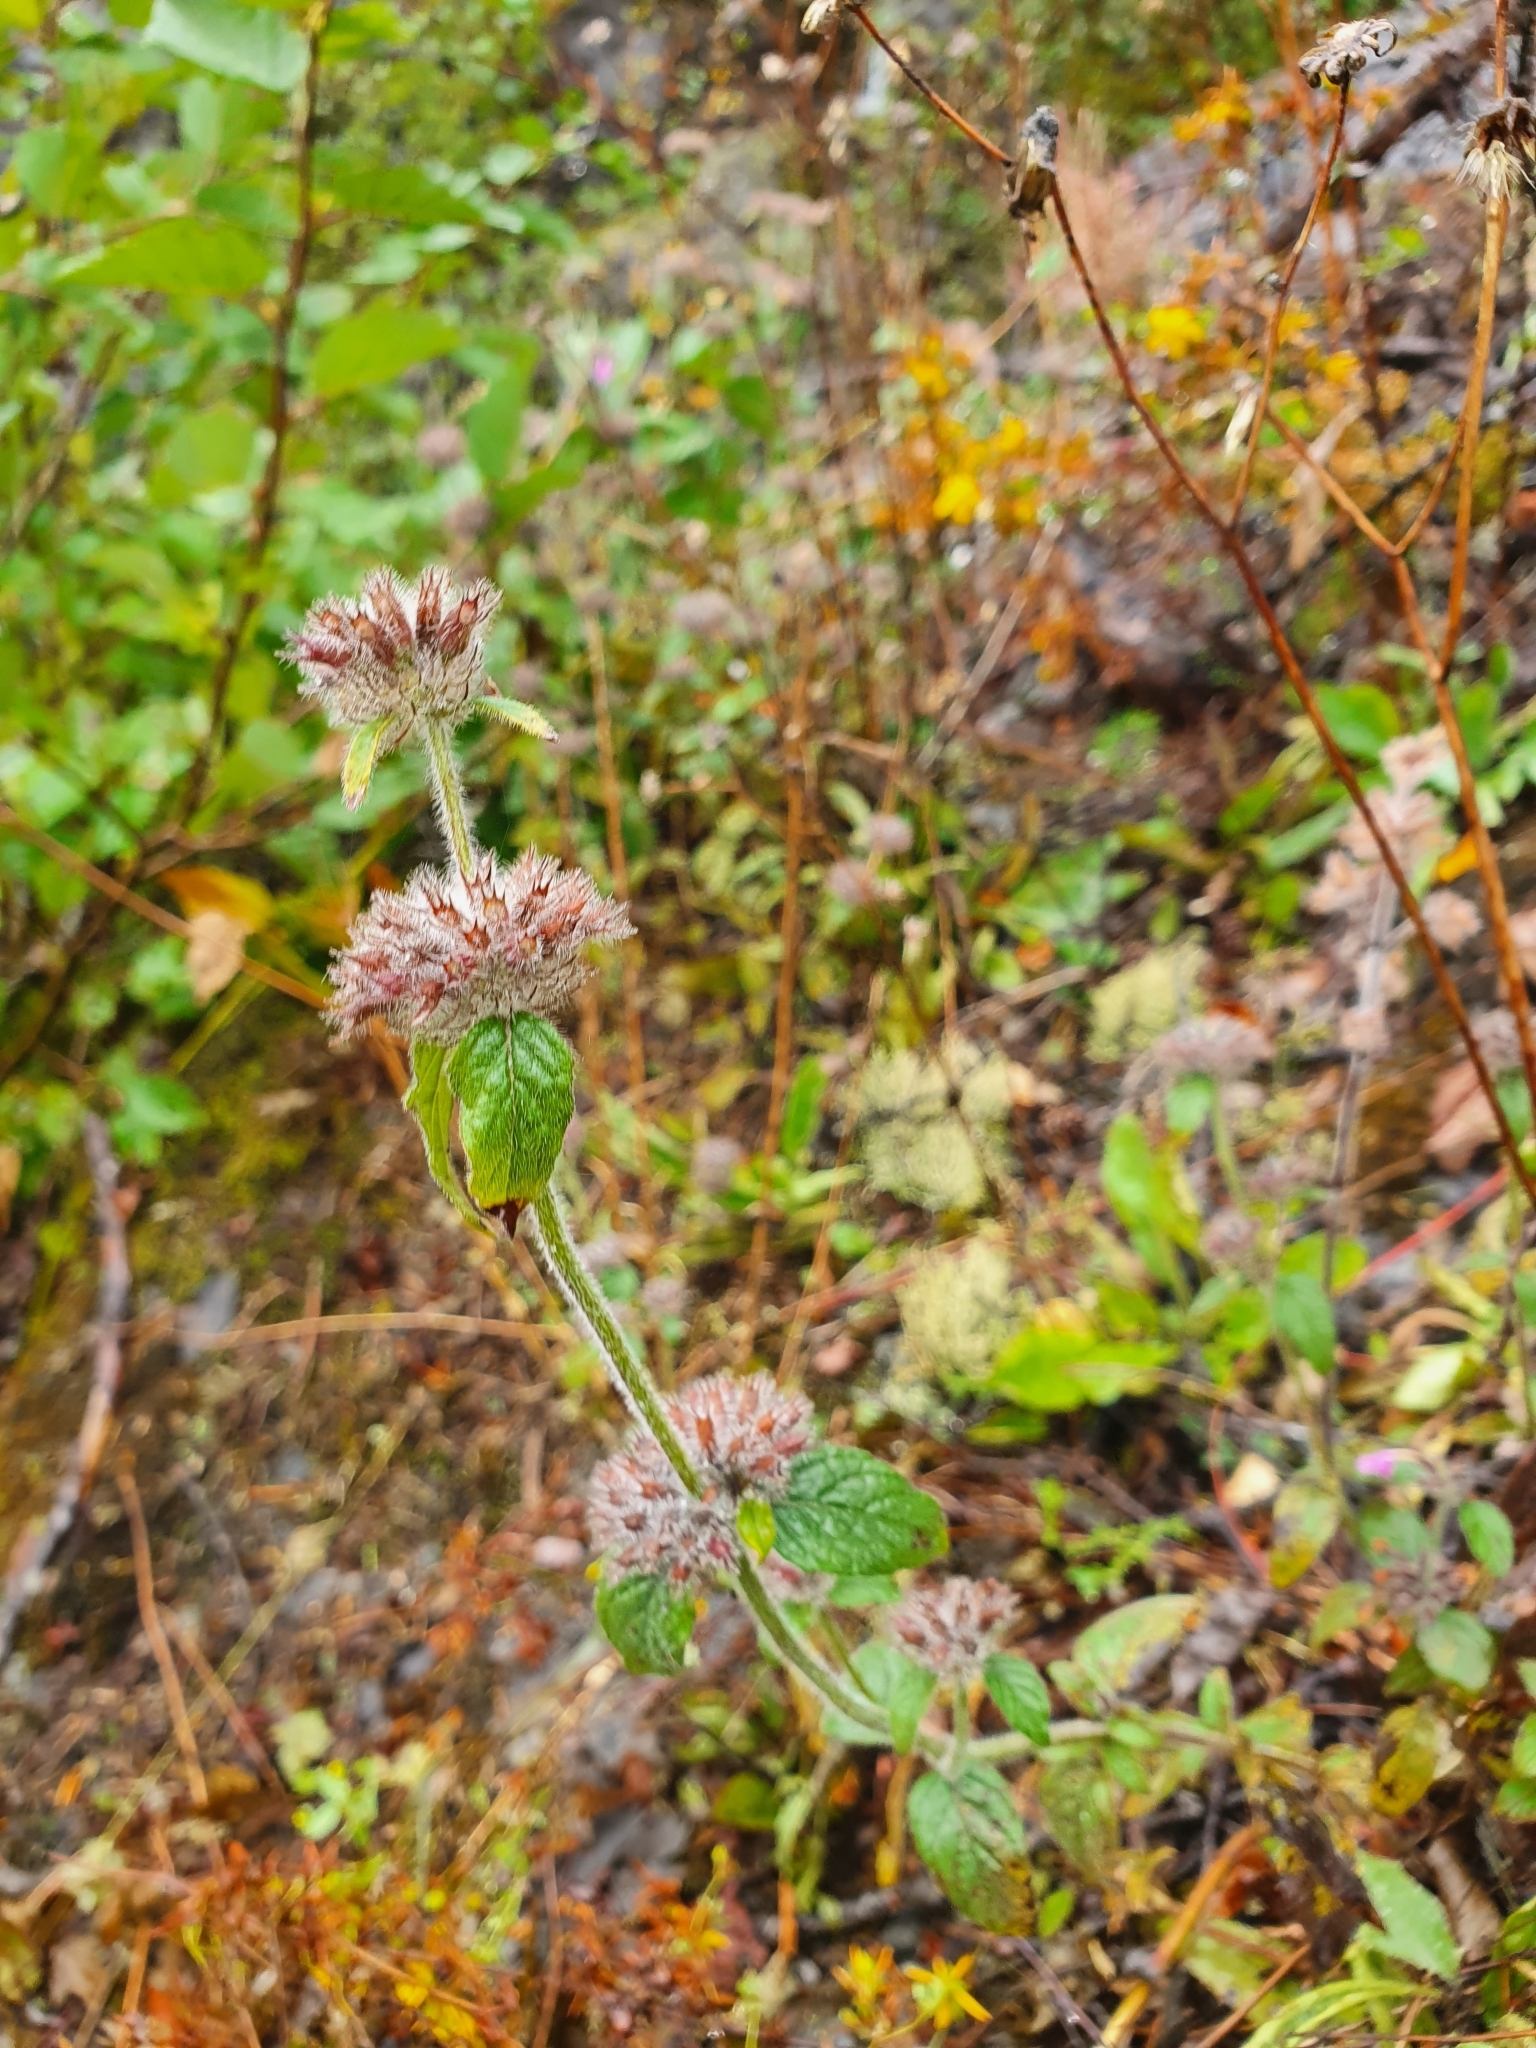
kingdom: Plantae
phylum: Tracheophyta
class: Magnoliopsida
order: Lamiales
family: Lamiaceae
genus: Clinopodium
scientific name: Clinopodium vulgare
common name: Wild basil
